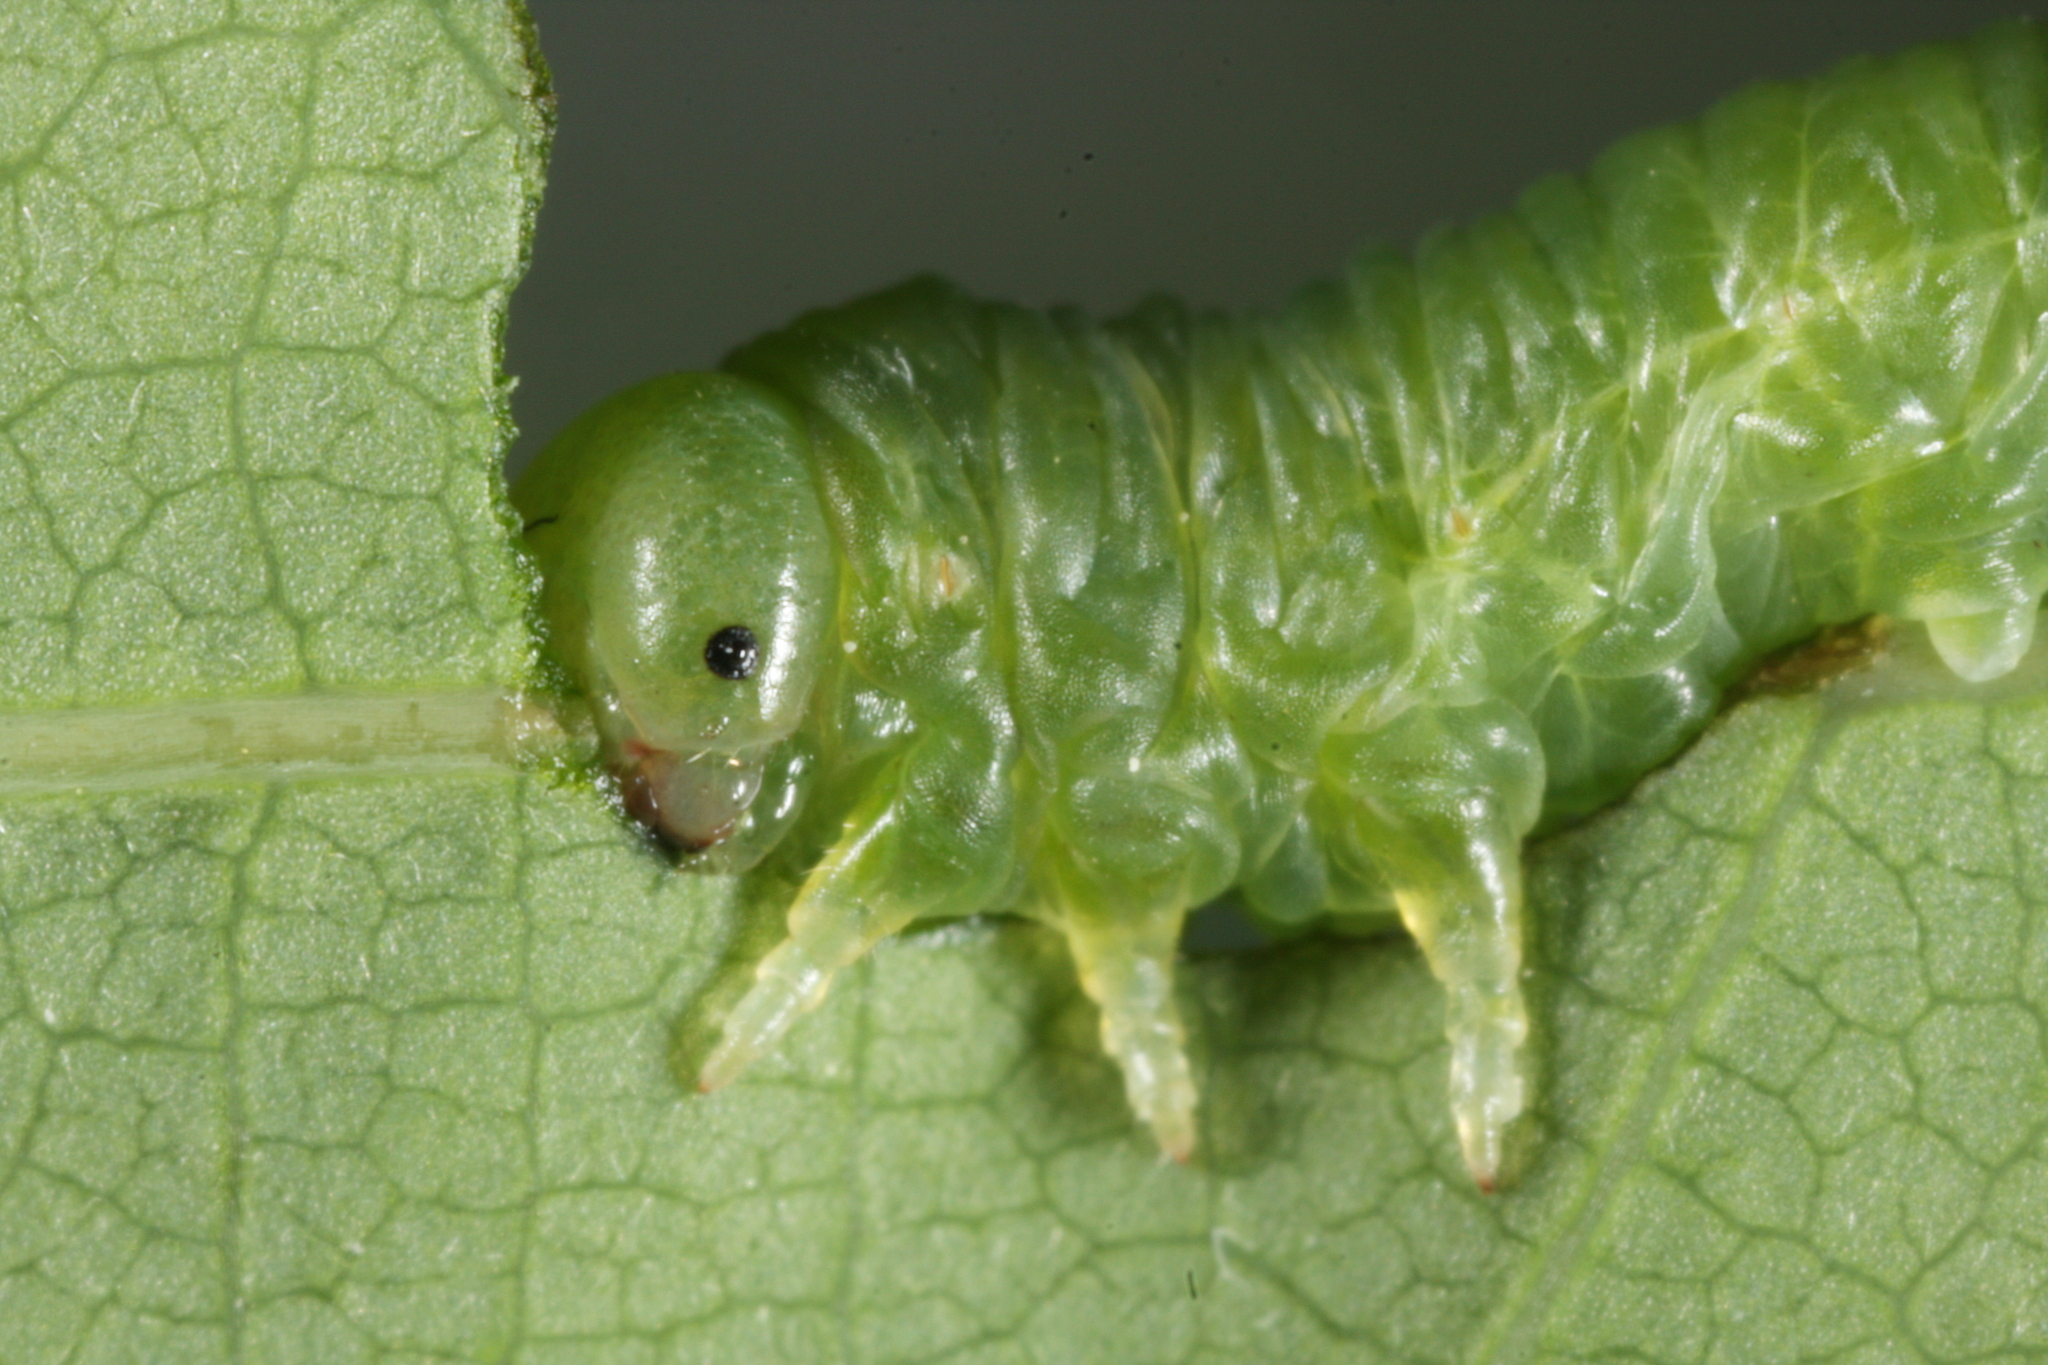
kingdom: Animalia
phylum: Arthropoda
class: Insecta
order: Hymenoptera
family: Tenthredinidae
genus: Mesoneura
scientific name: Mesoneura opaca
